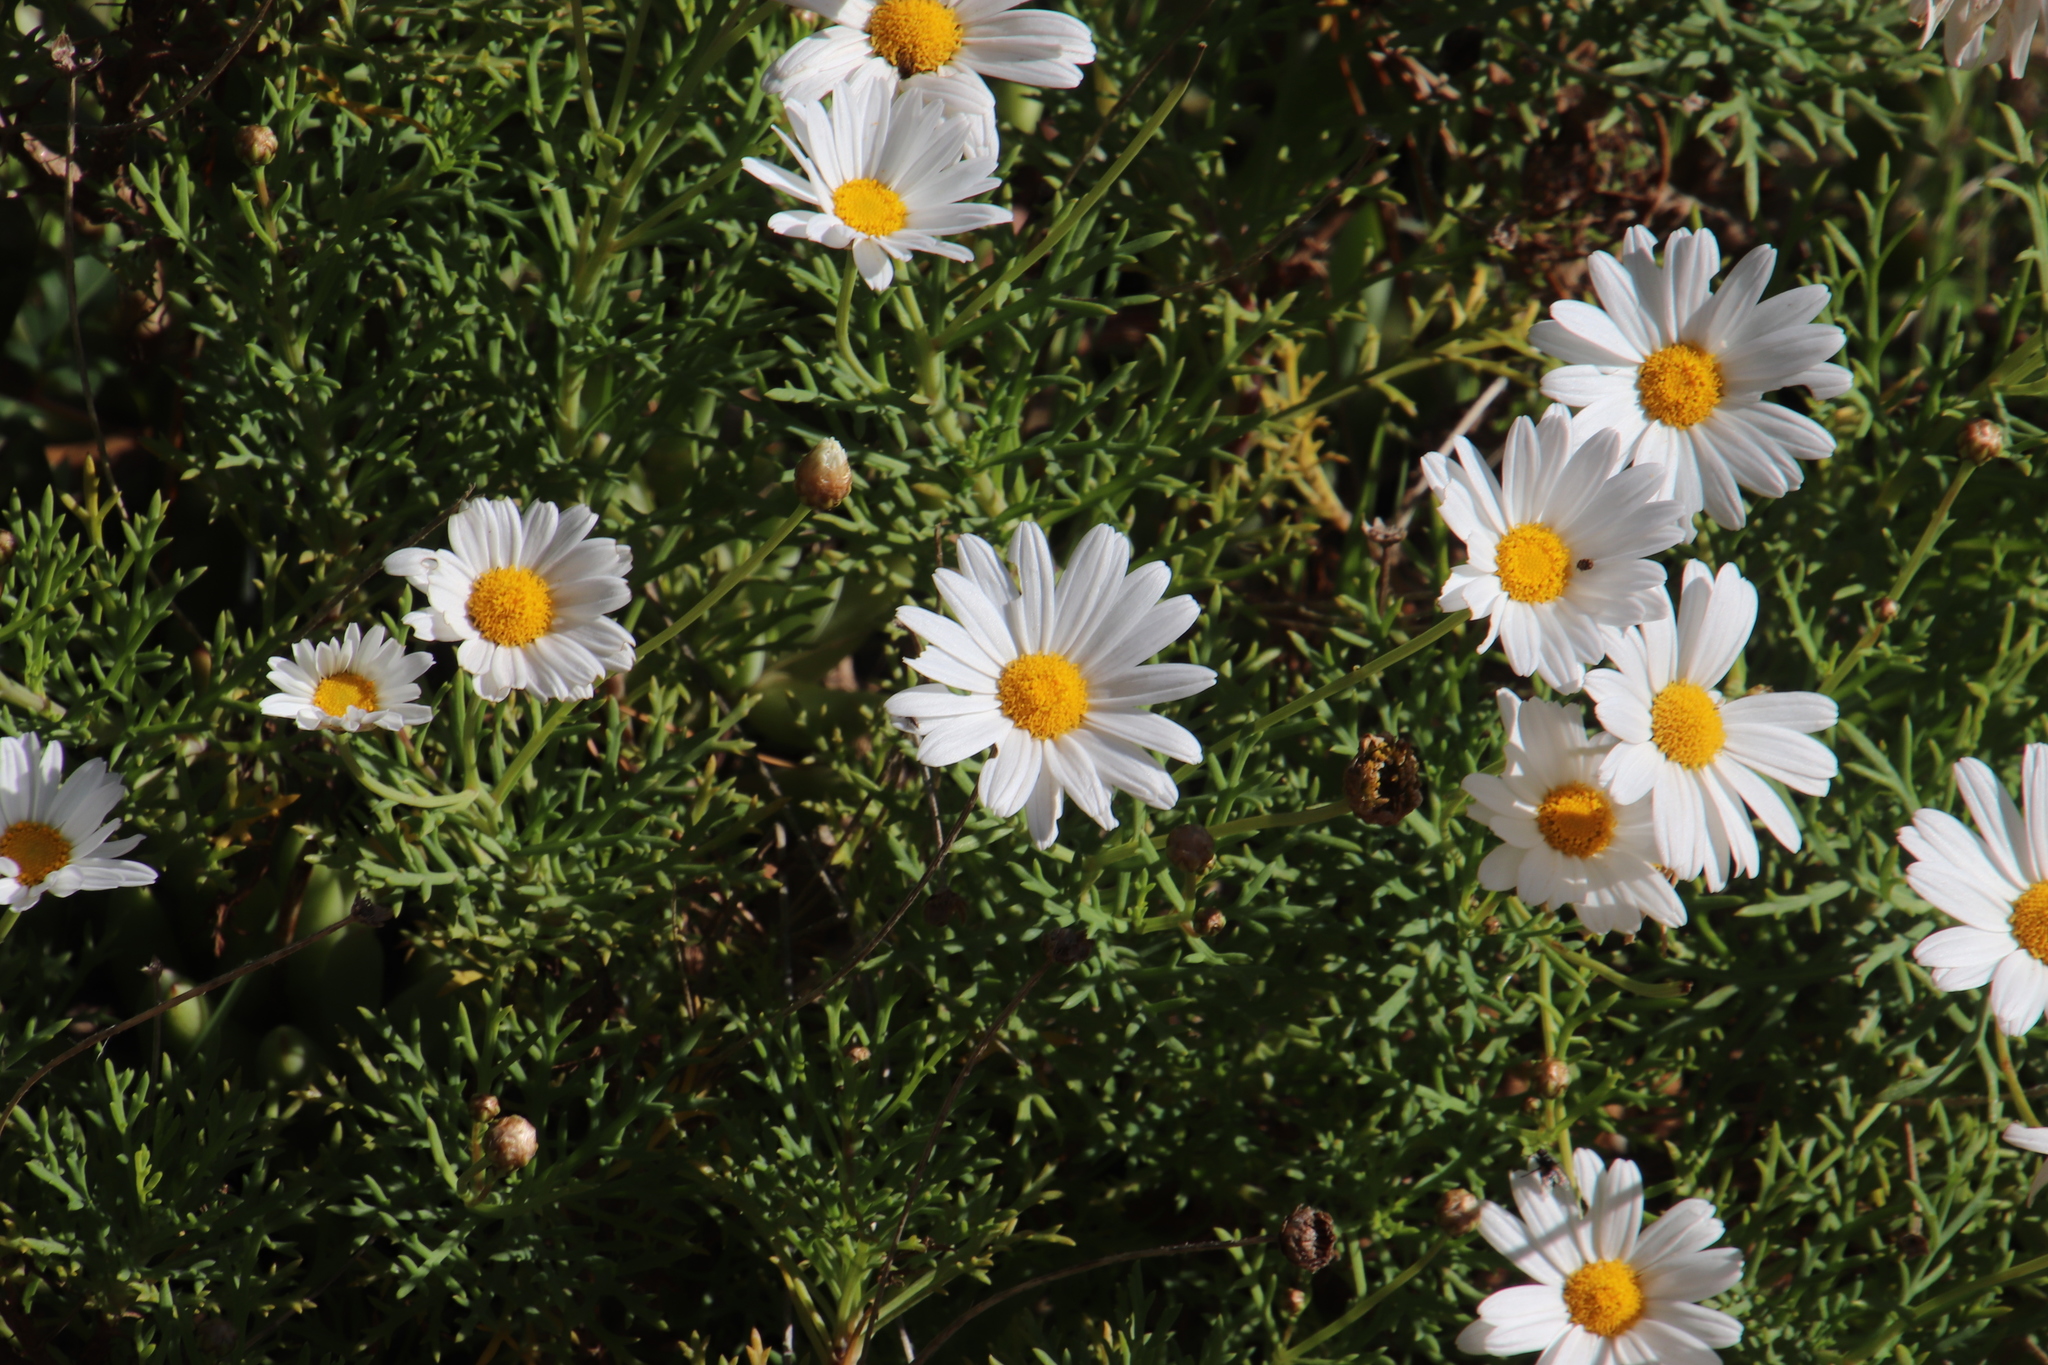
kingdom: Plantae
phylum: Tracheophyta
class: Magnoliopsida
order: Asterales
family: Asteraceae
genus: Argyranthemum
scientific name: Argyranthemum frutescens
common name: Paris daisy
